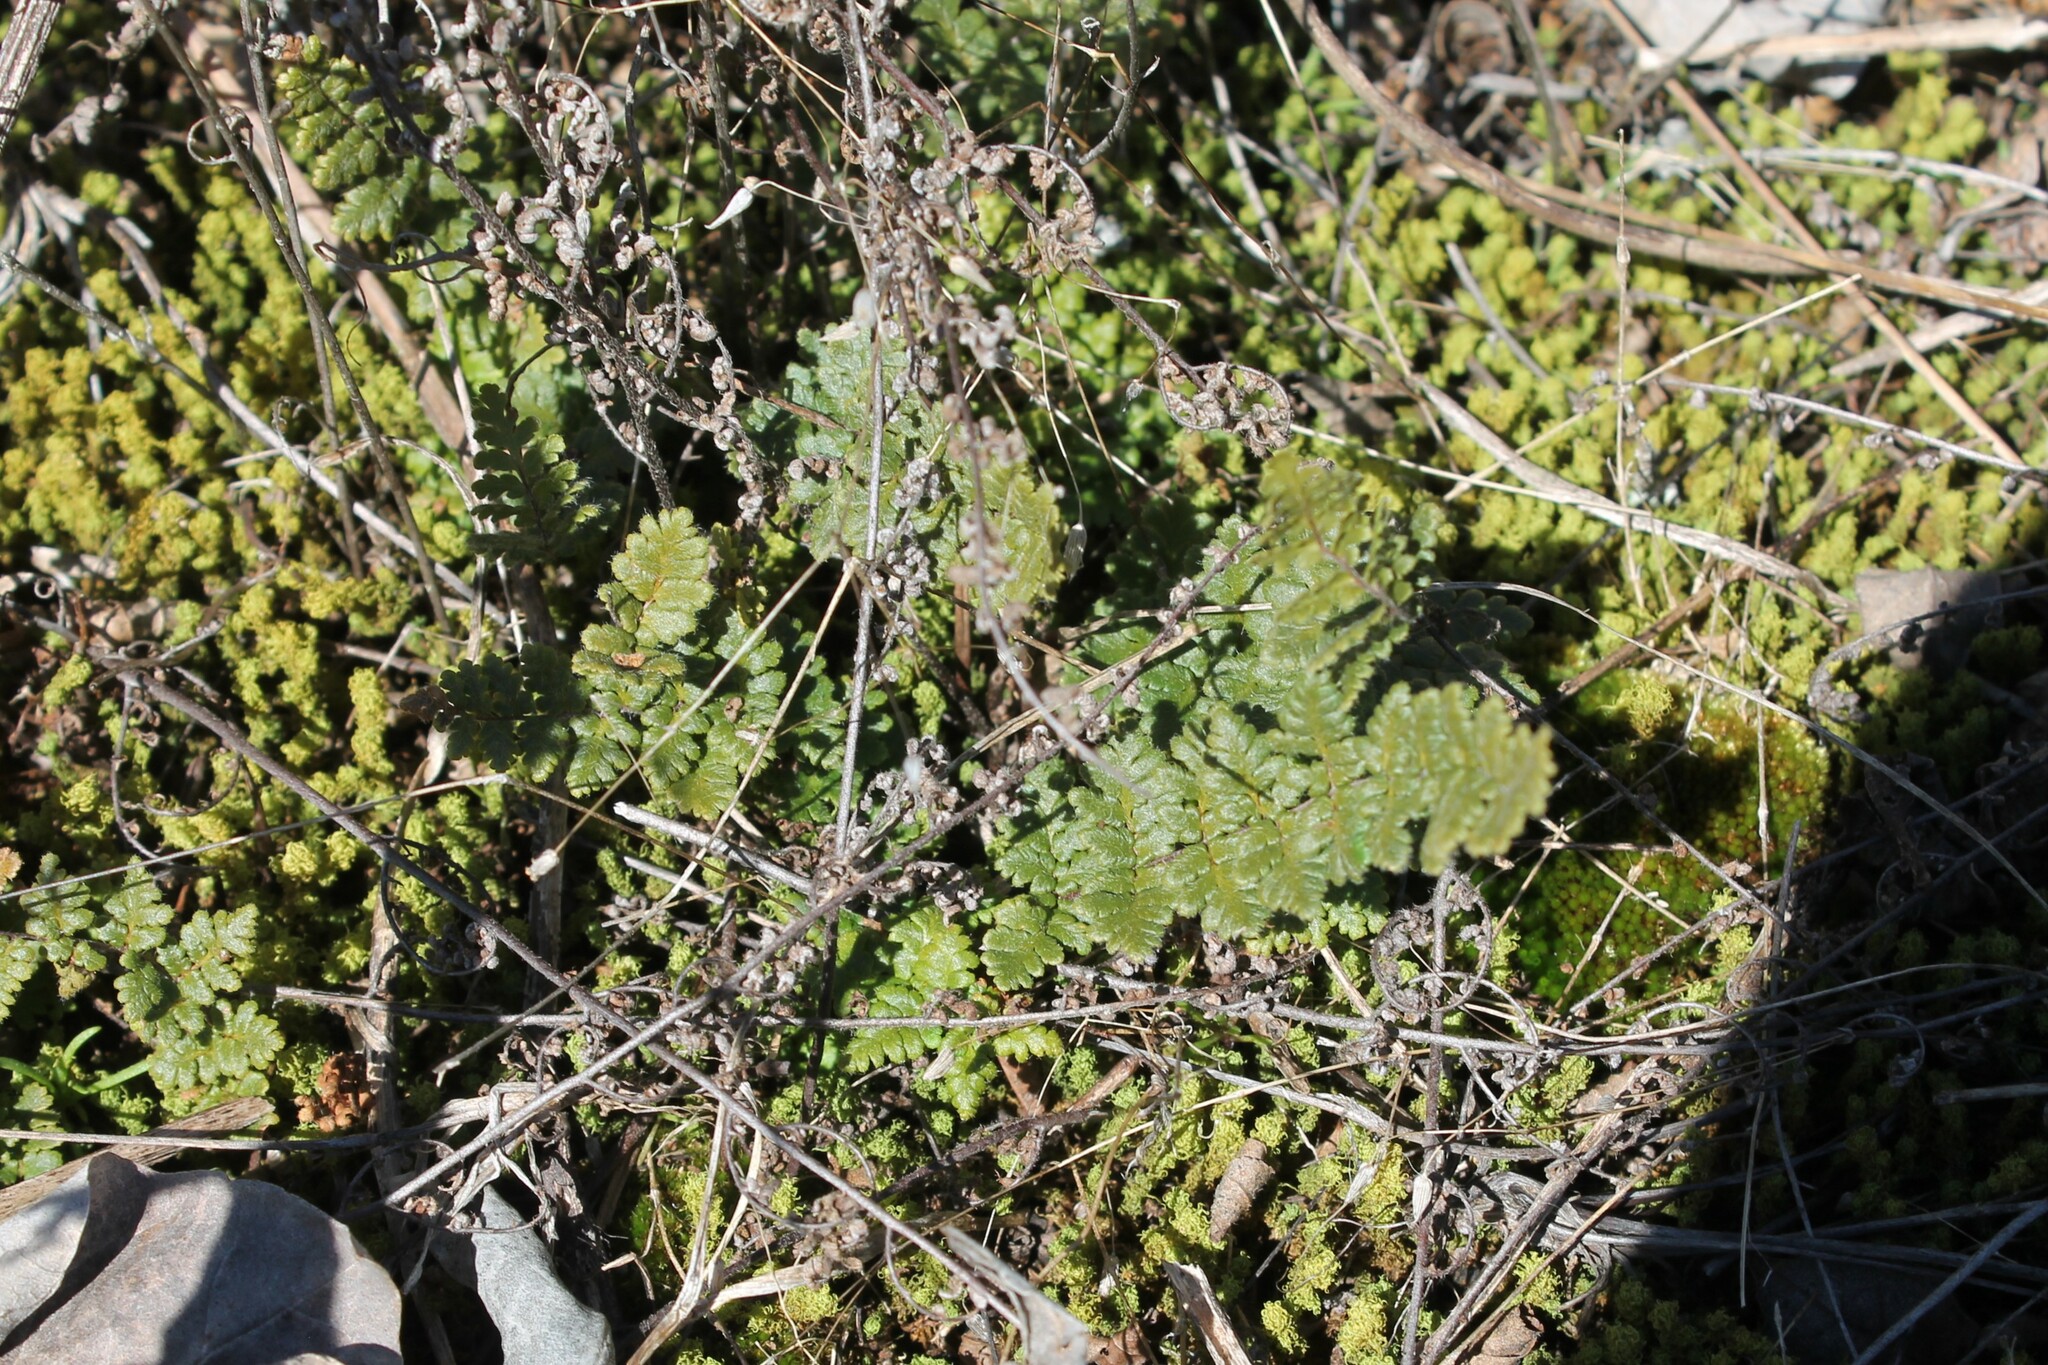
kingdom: Plantae
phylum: Tracheophyta
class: Polypodiopsida
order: Polypodiales
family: Pteridaceae
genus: Myriopteris
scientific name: Myriopteris lanosa
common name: Hairy lip fern
